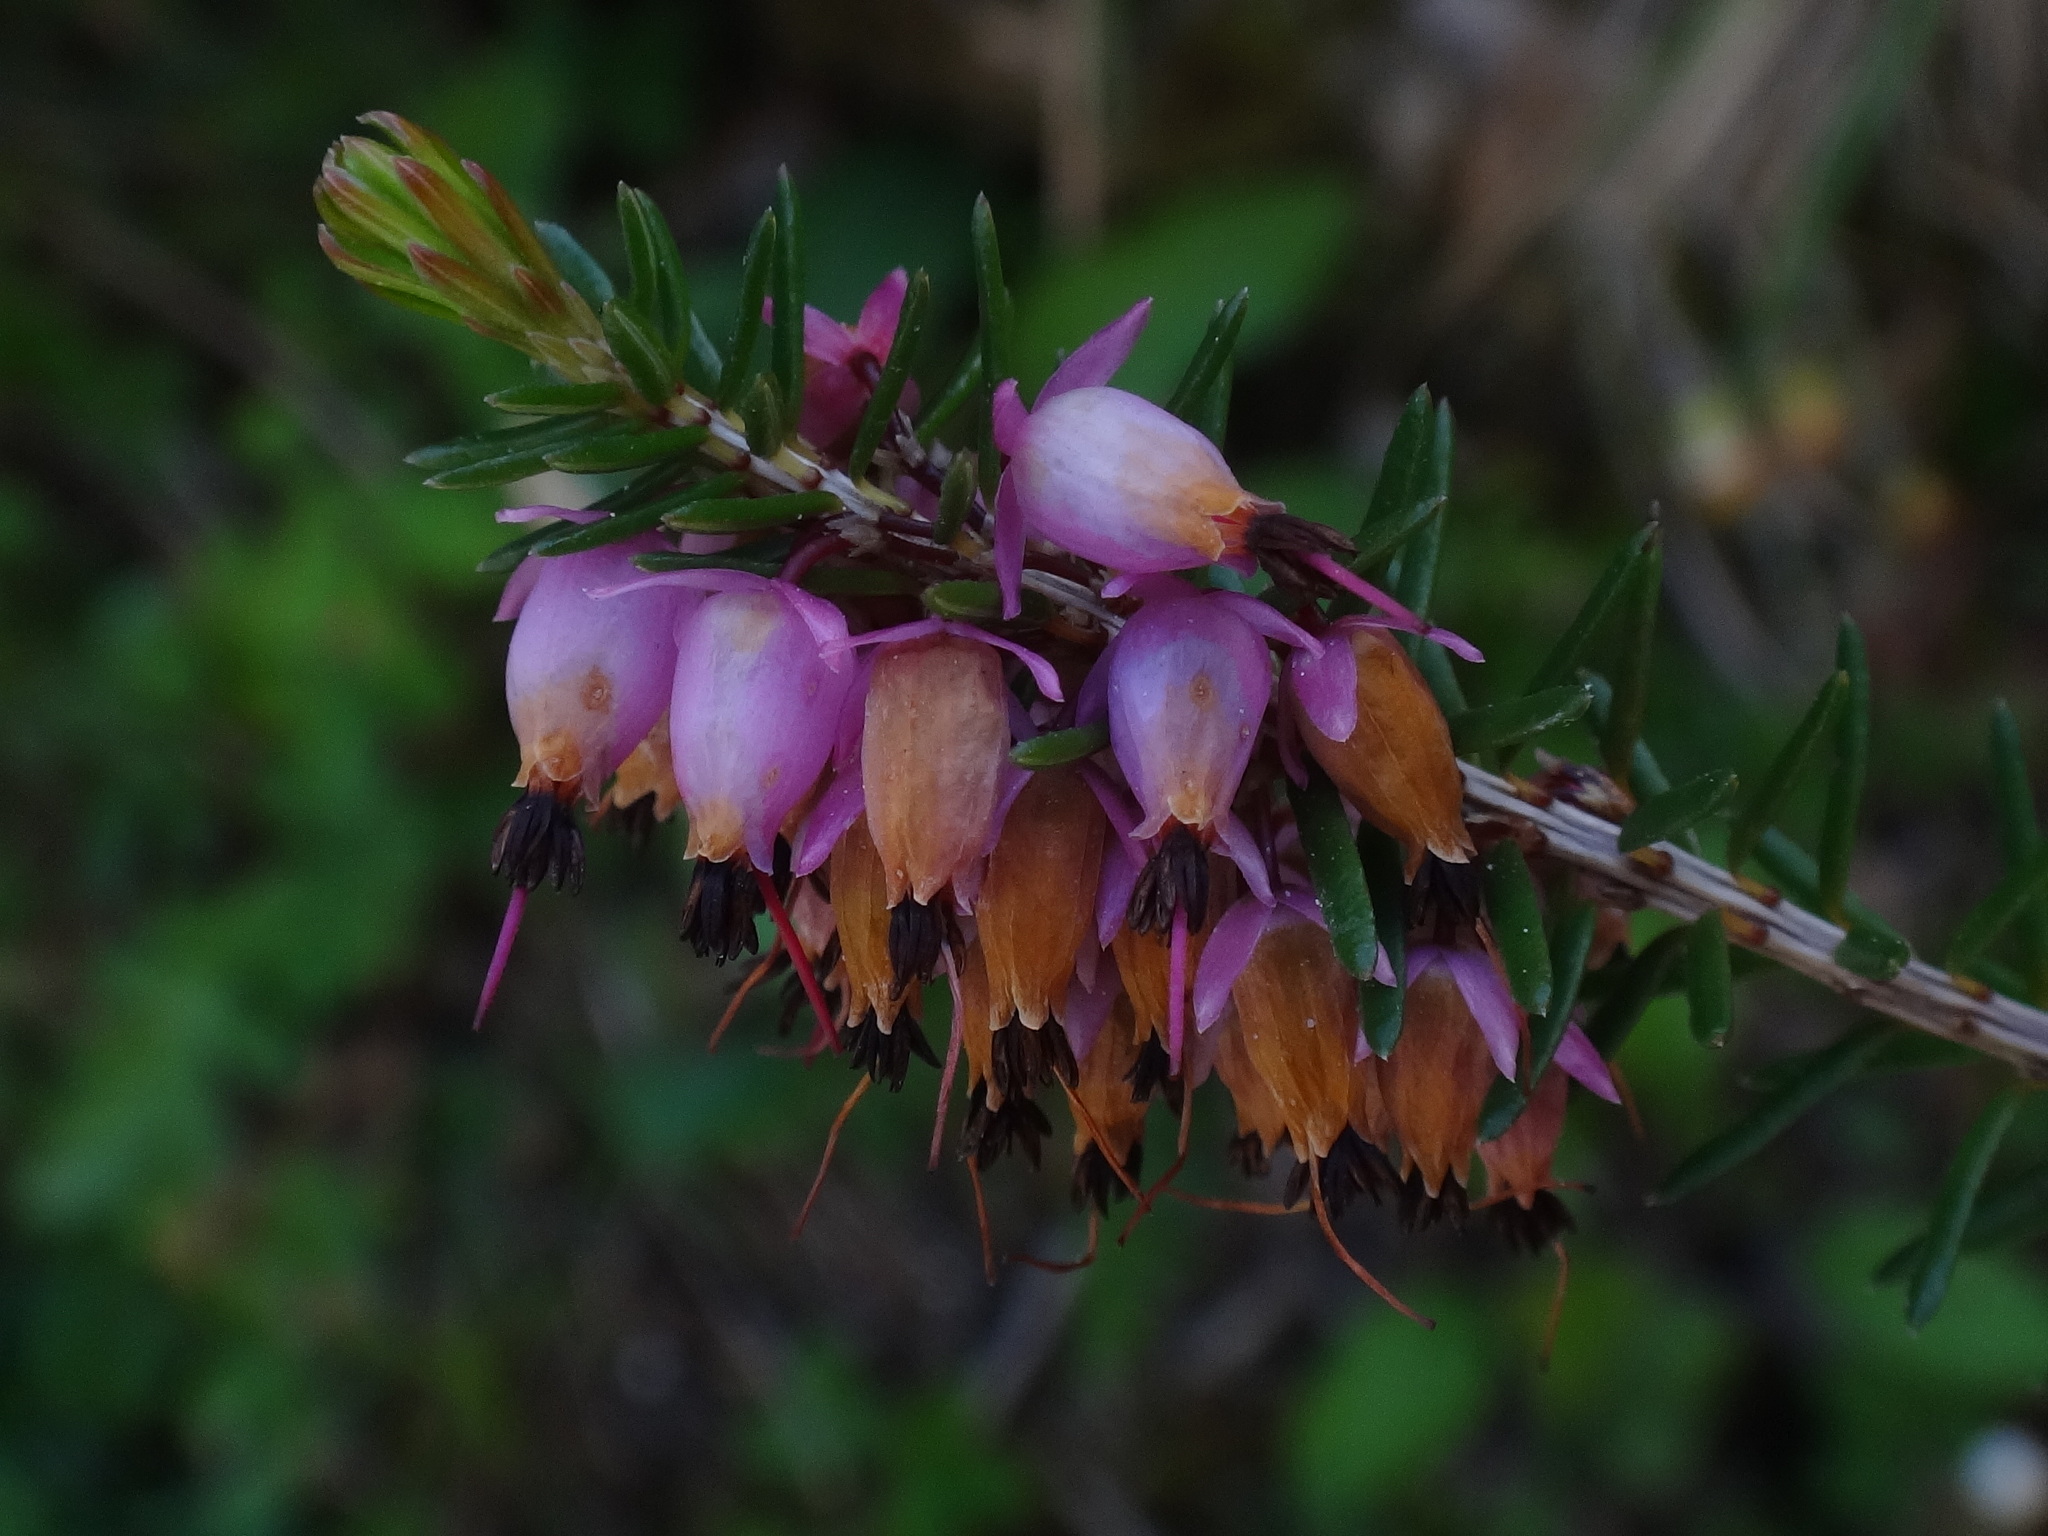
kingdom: Plantae
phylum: Tracheophyta
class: Magnoliopsida
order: Ericales
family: Ericaceae
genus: Erica
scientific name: Erica carnea
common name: Winter heath
